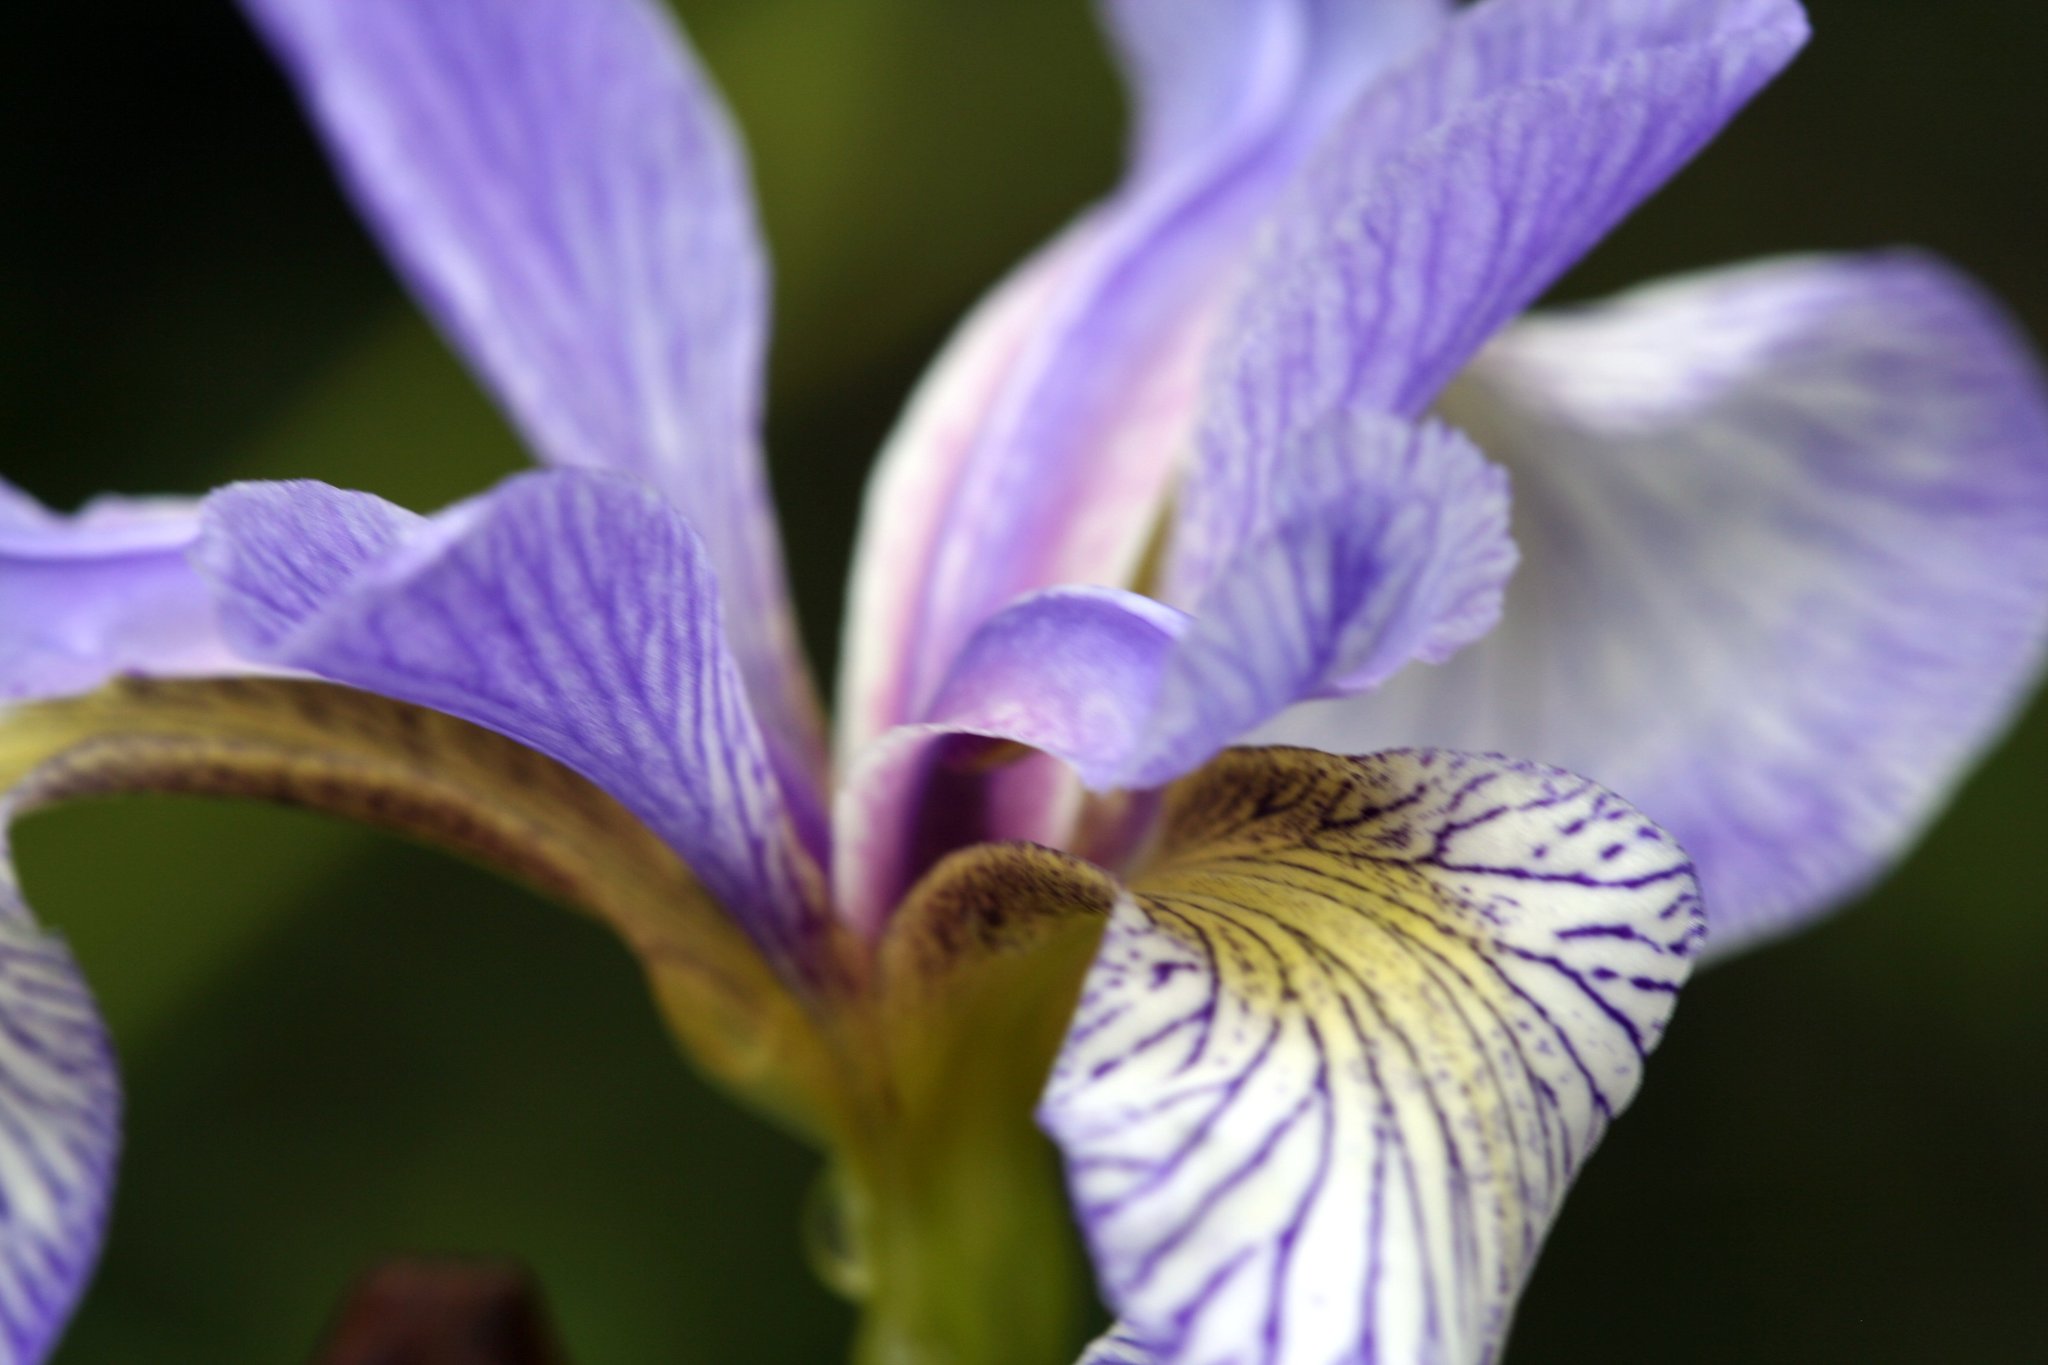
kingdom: Plantae
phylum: Tracheophyta
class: Liliopsida
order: Asparagales
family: Iridaceae
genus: Iris
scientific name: Iris versicolor
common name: Purple iris
